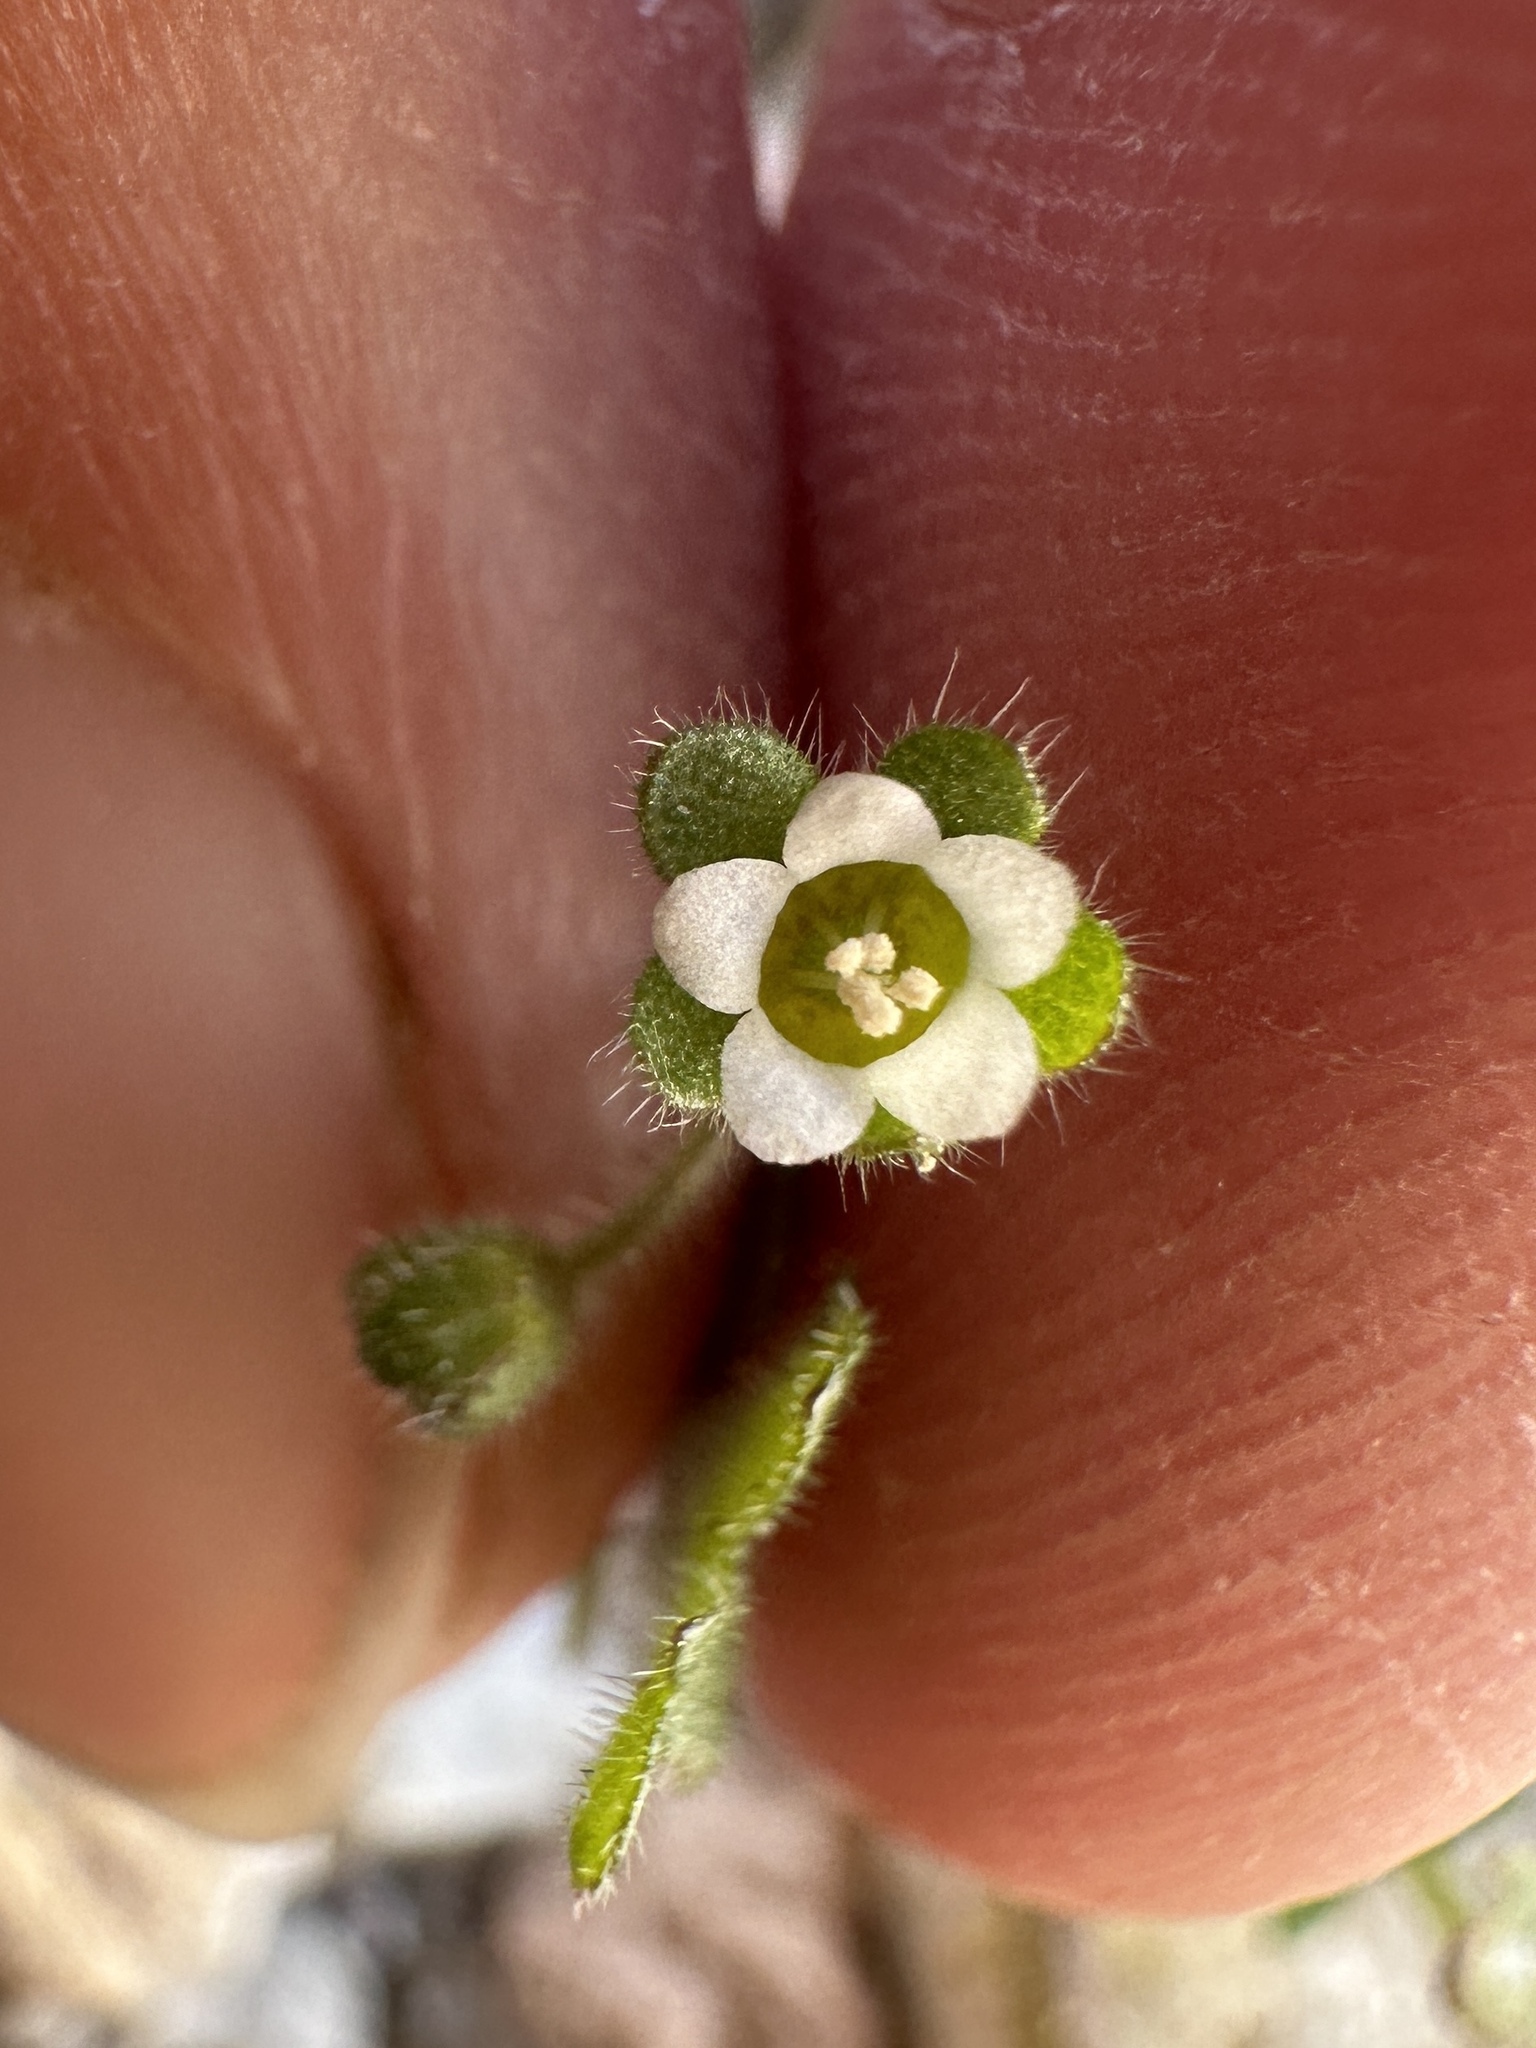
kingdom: Plantae
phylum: Tracheophyta
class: Magnoliopsida
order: Boraginales
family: Hydrophyllaceae
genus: Eucrypta
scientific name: Eucrypta micrantha
